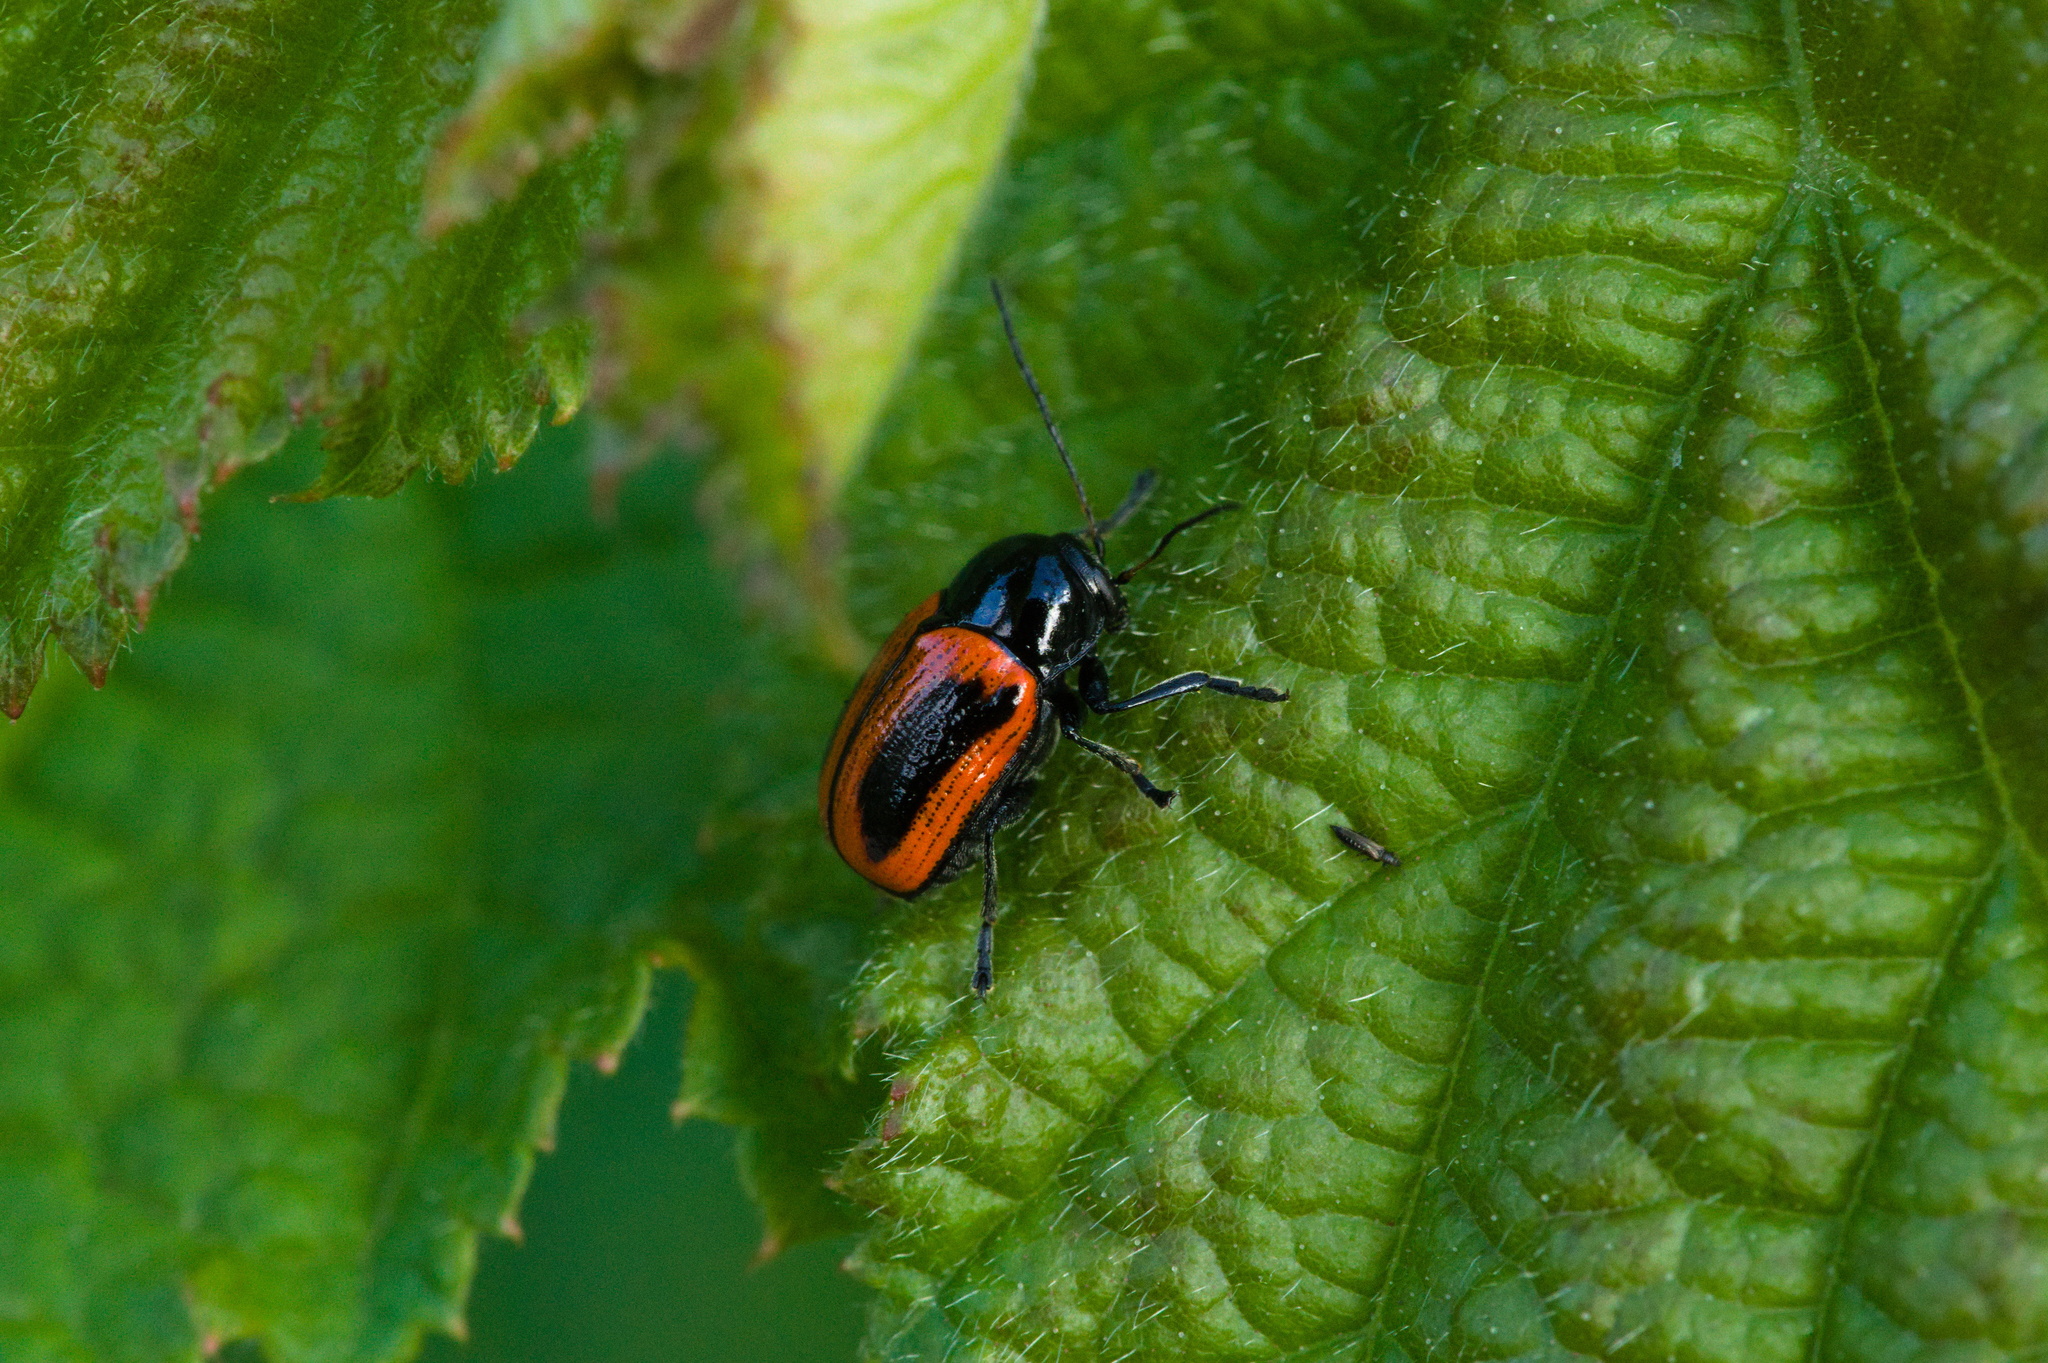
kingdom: Animalia
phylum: Arthropoda
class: Insecta
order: Coleoptera
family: Chrysomelidae
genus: Chiridopsis
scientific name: Chiridopsis bipunctata
